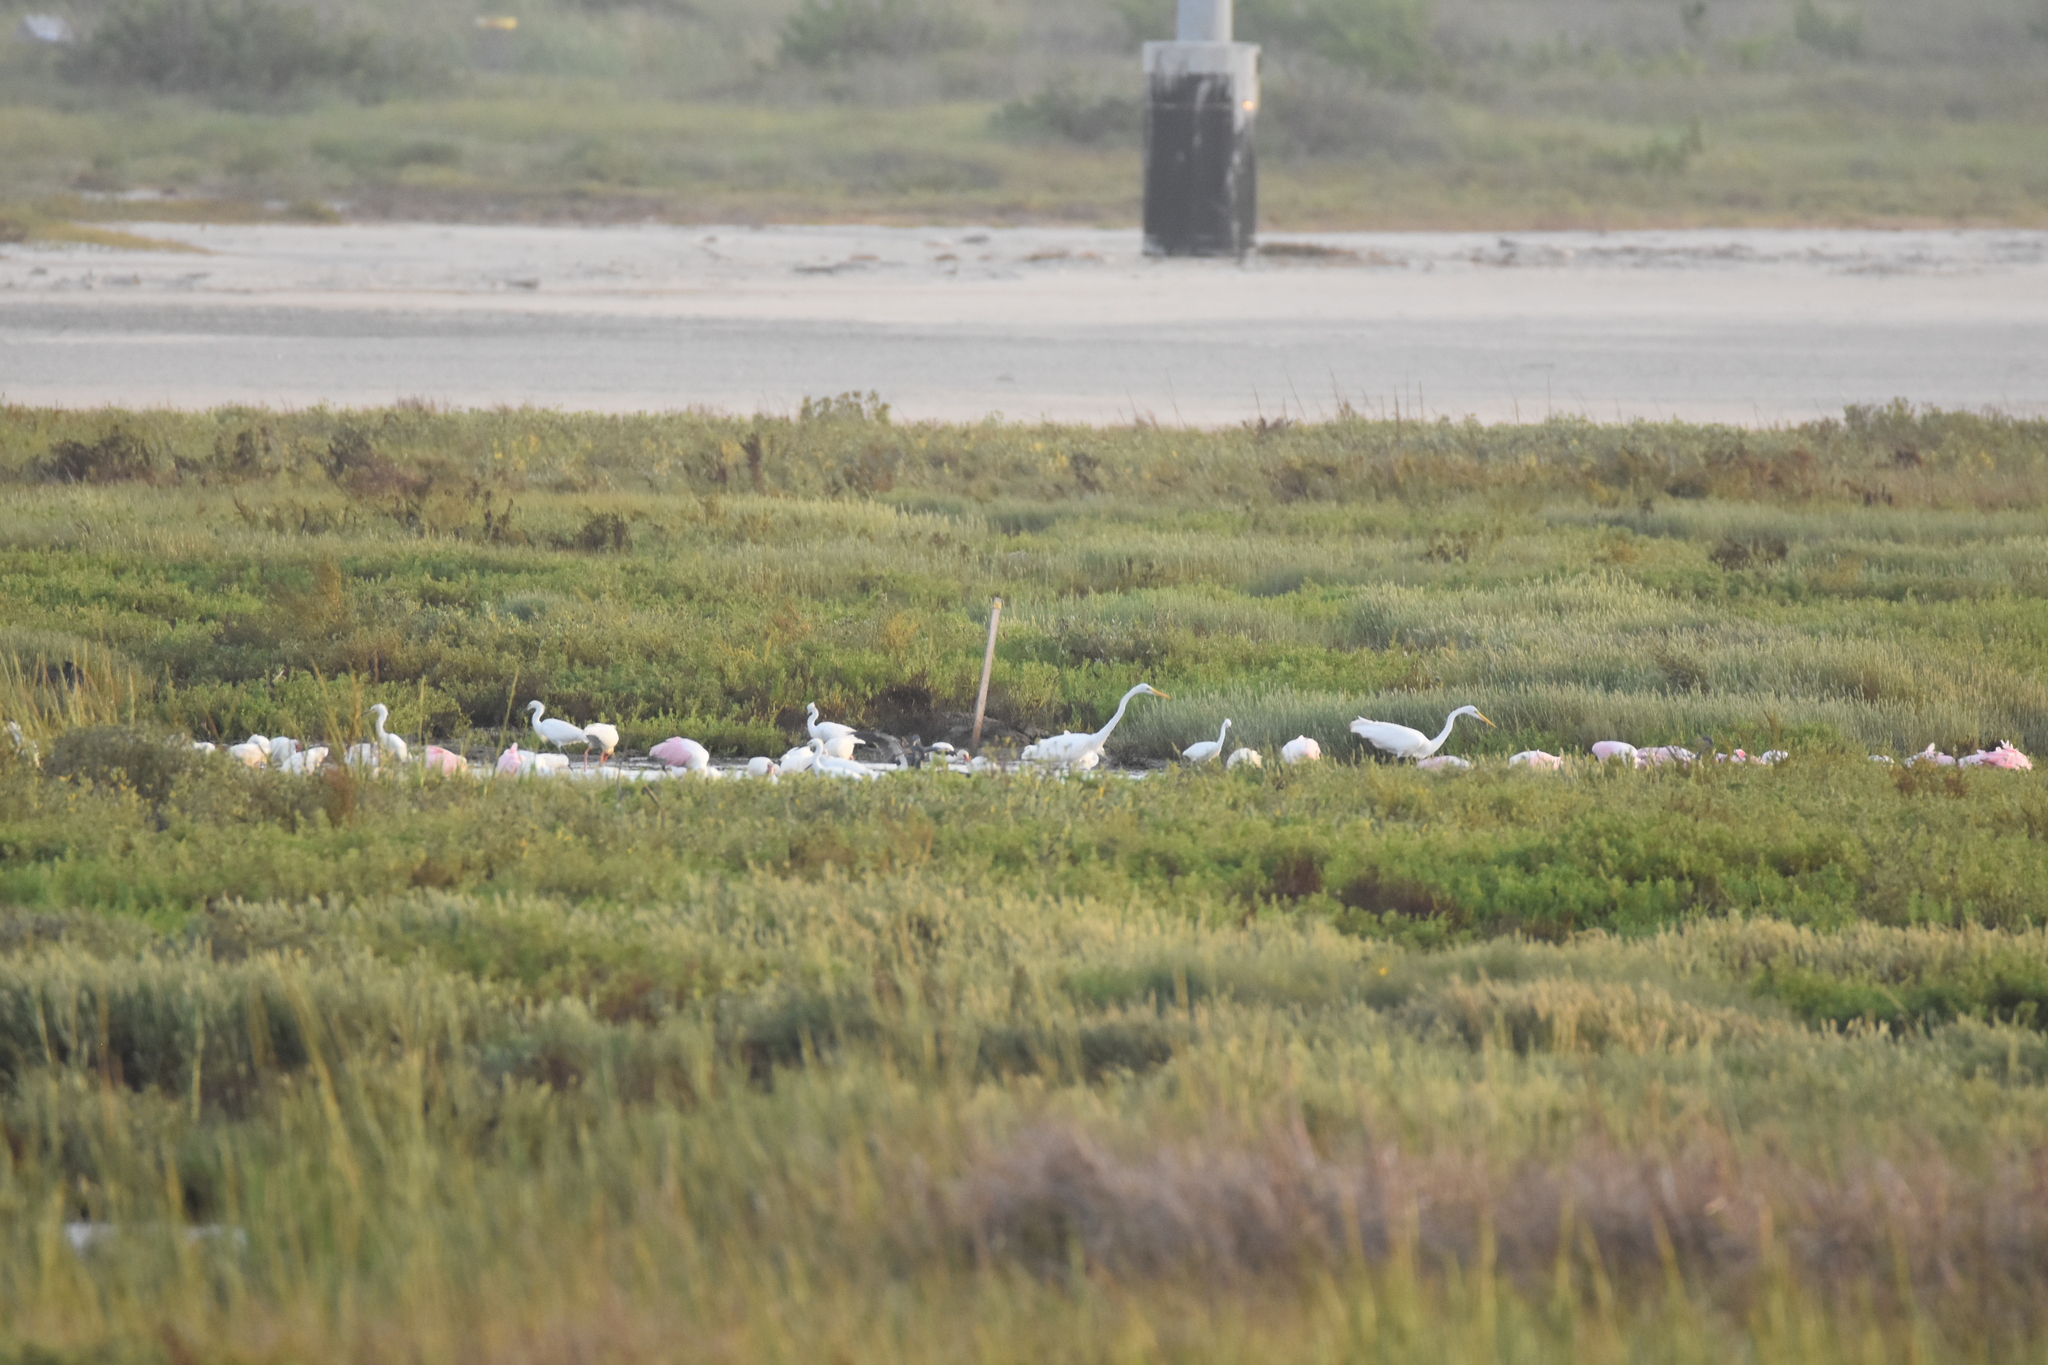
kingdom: Animalia
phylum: Chordata
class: Aves
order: Pelecaniformes
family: Threskiornithidae
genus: Eudocimus
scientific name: Eudocimus albus
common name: White ibis
